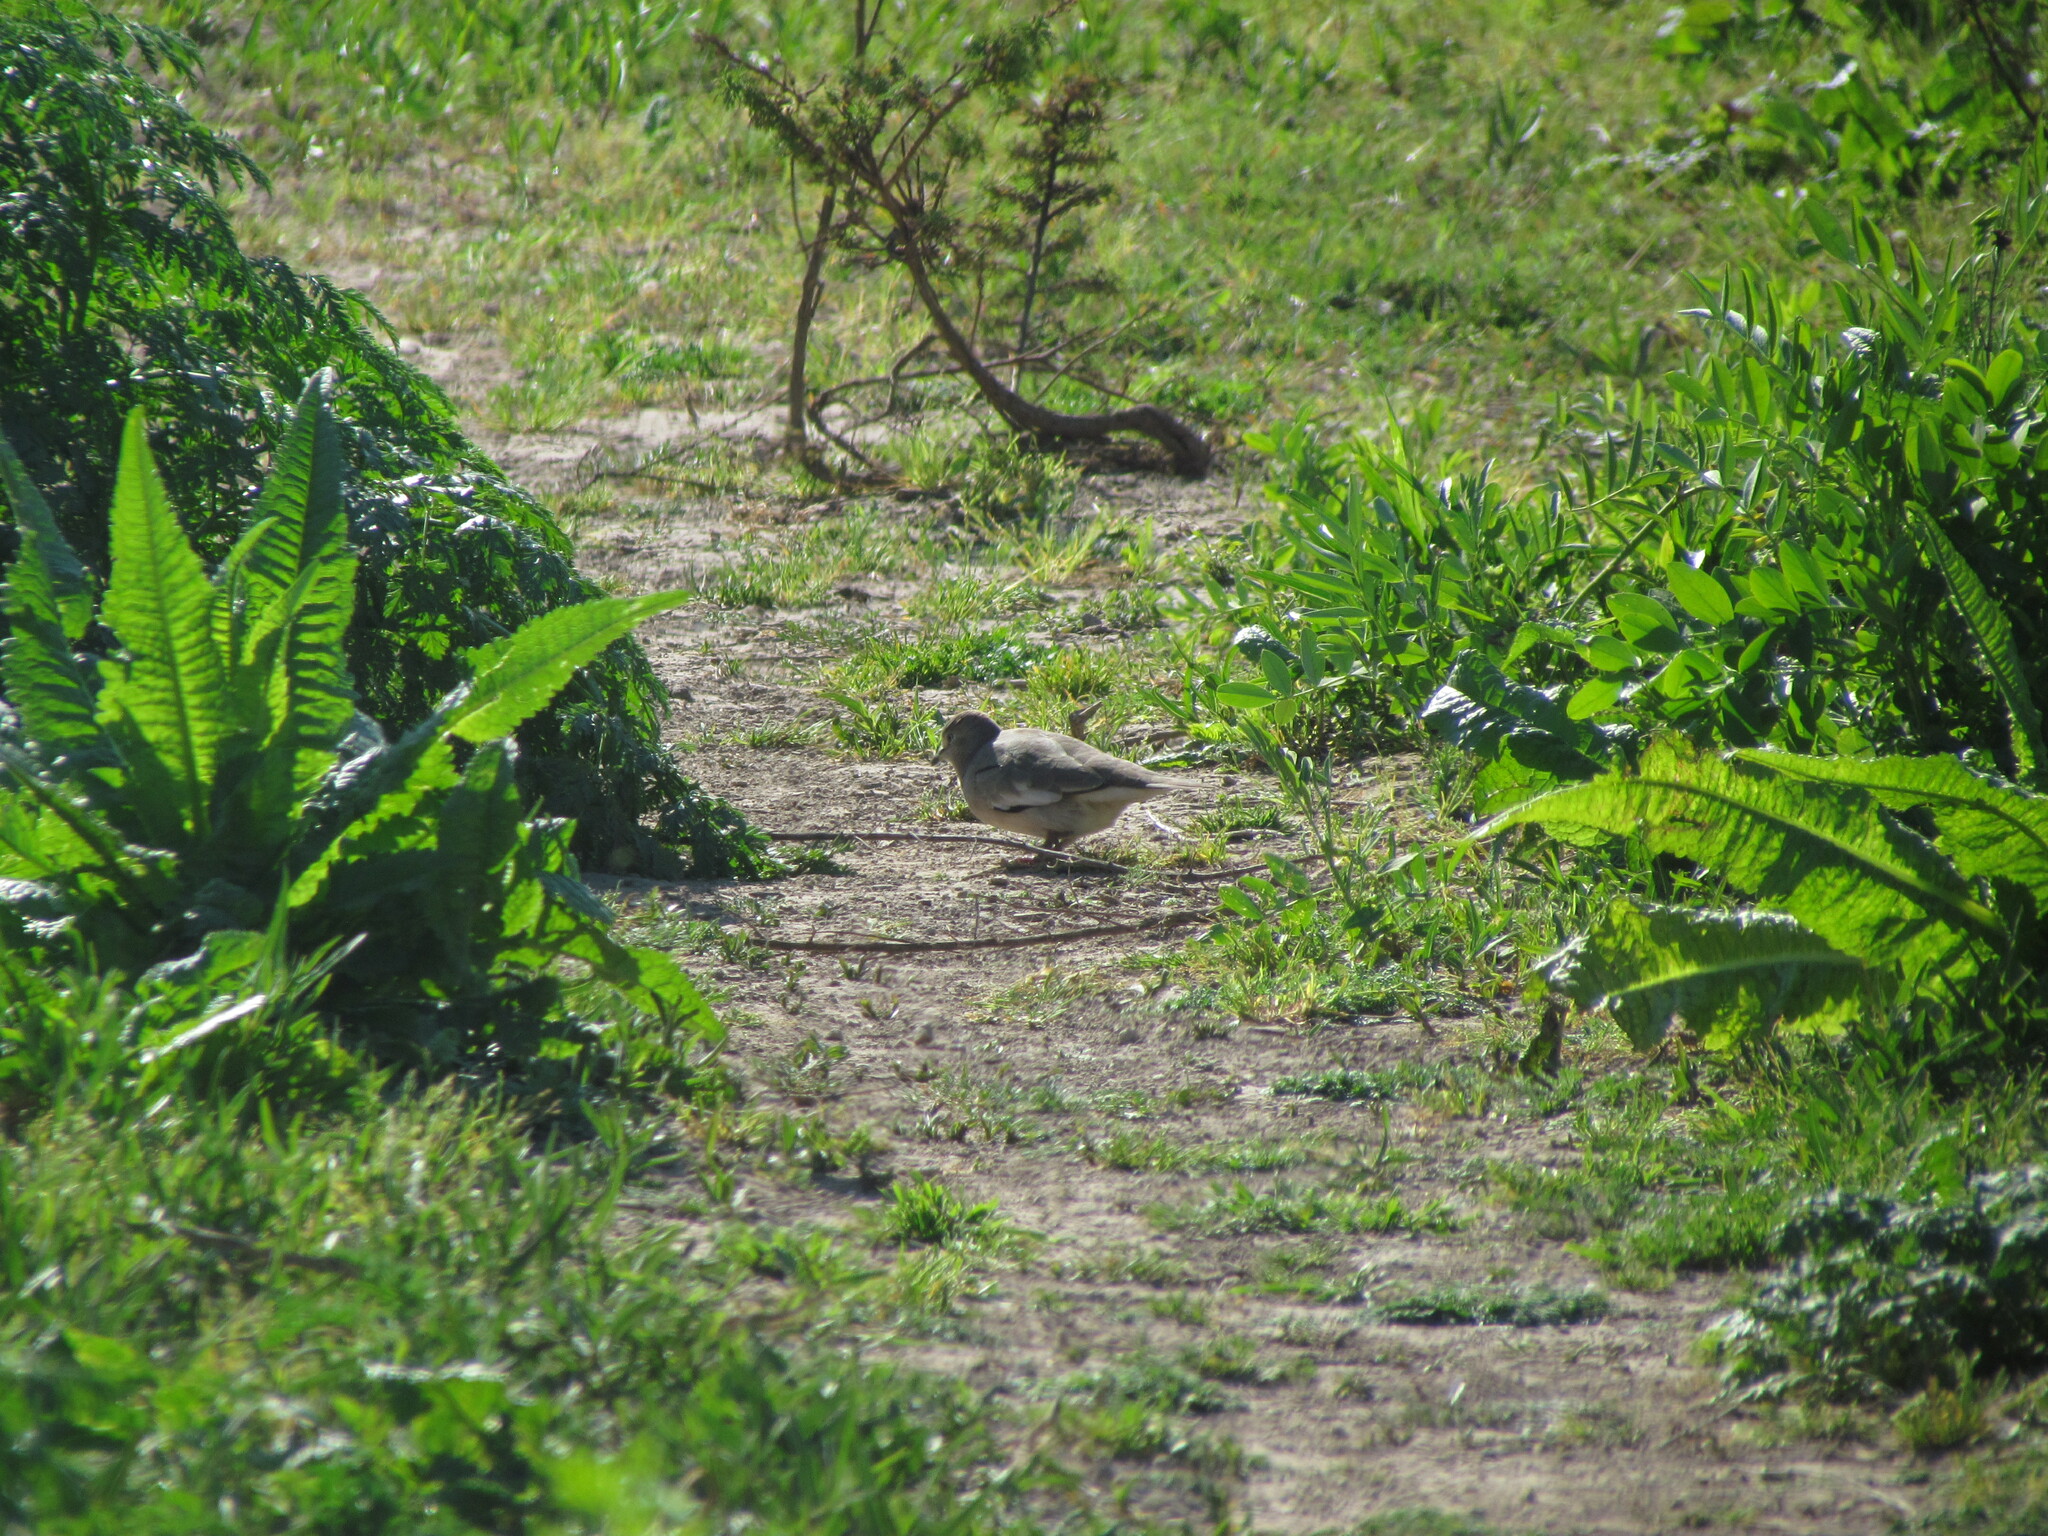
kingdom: Animalia
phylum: Chordata
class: Aves
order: Columbiformes
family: Columbidae
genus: Columbina
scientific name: Columbina picui
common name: Picui ground dove
